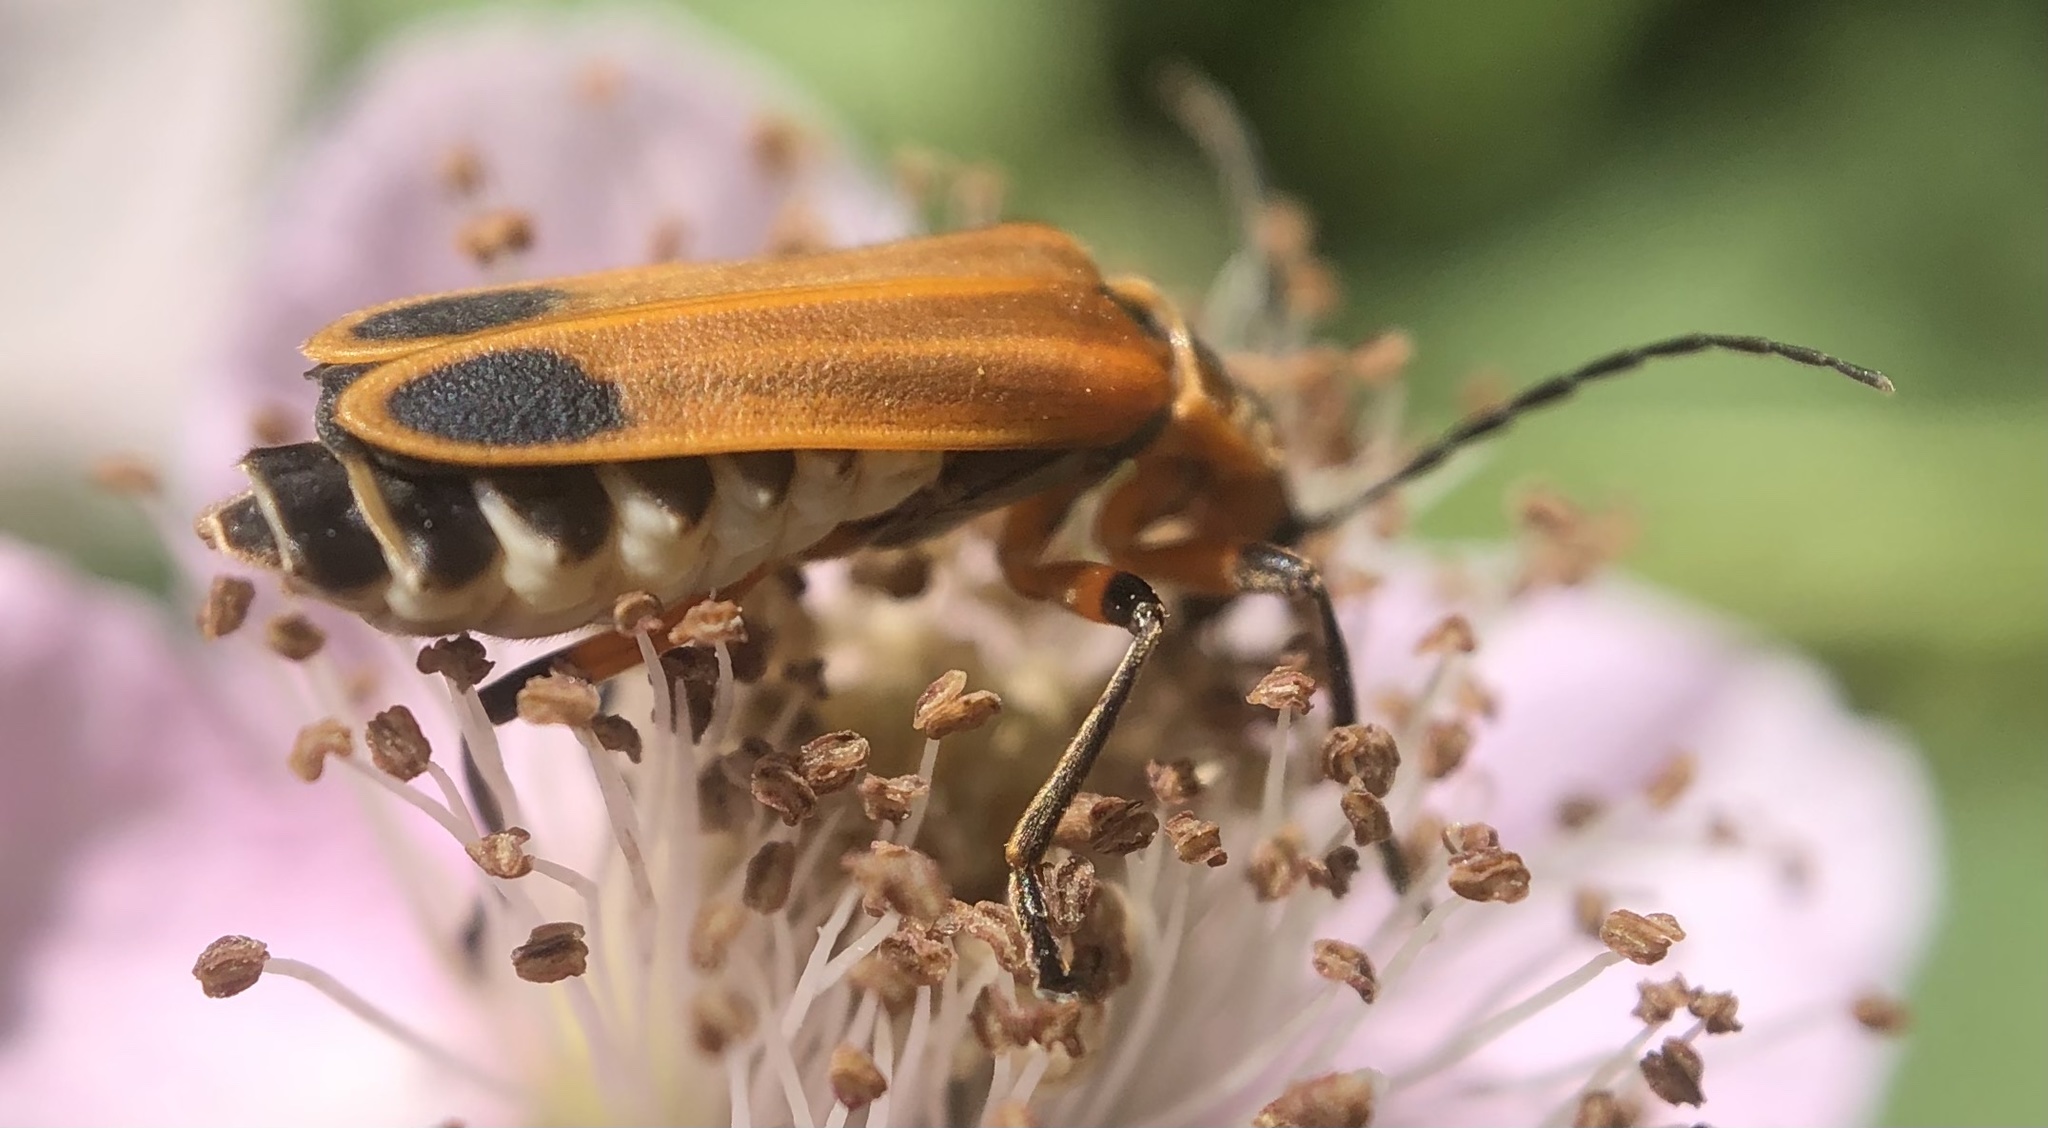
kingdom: Animalia
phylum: Arthropoda
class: Insecta
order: Coleoptera
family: Cantharidae
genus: Chauliognathus
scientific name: Chauliognathus marginatus
